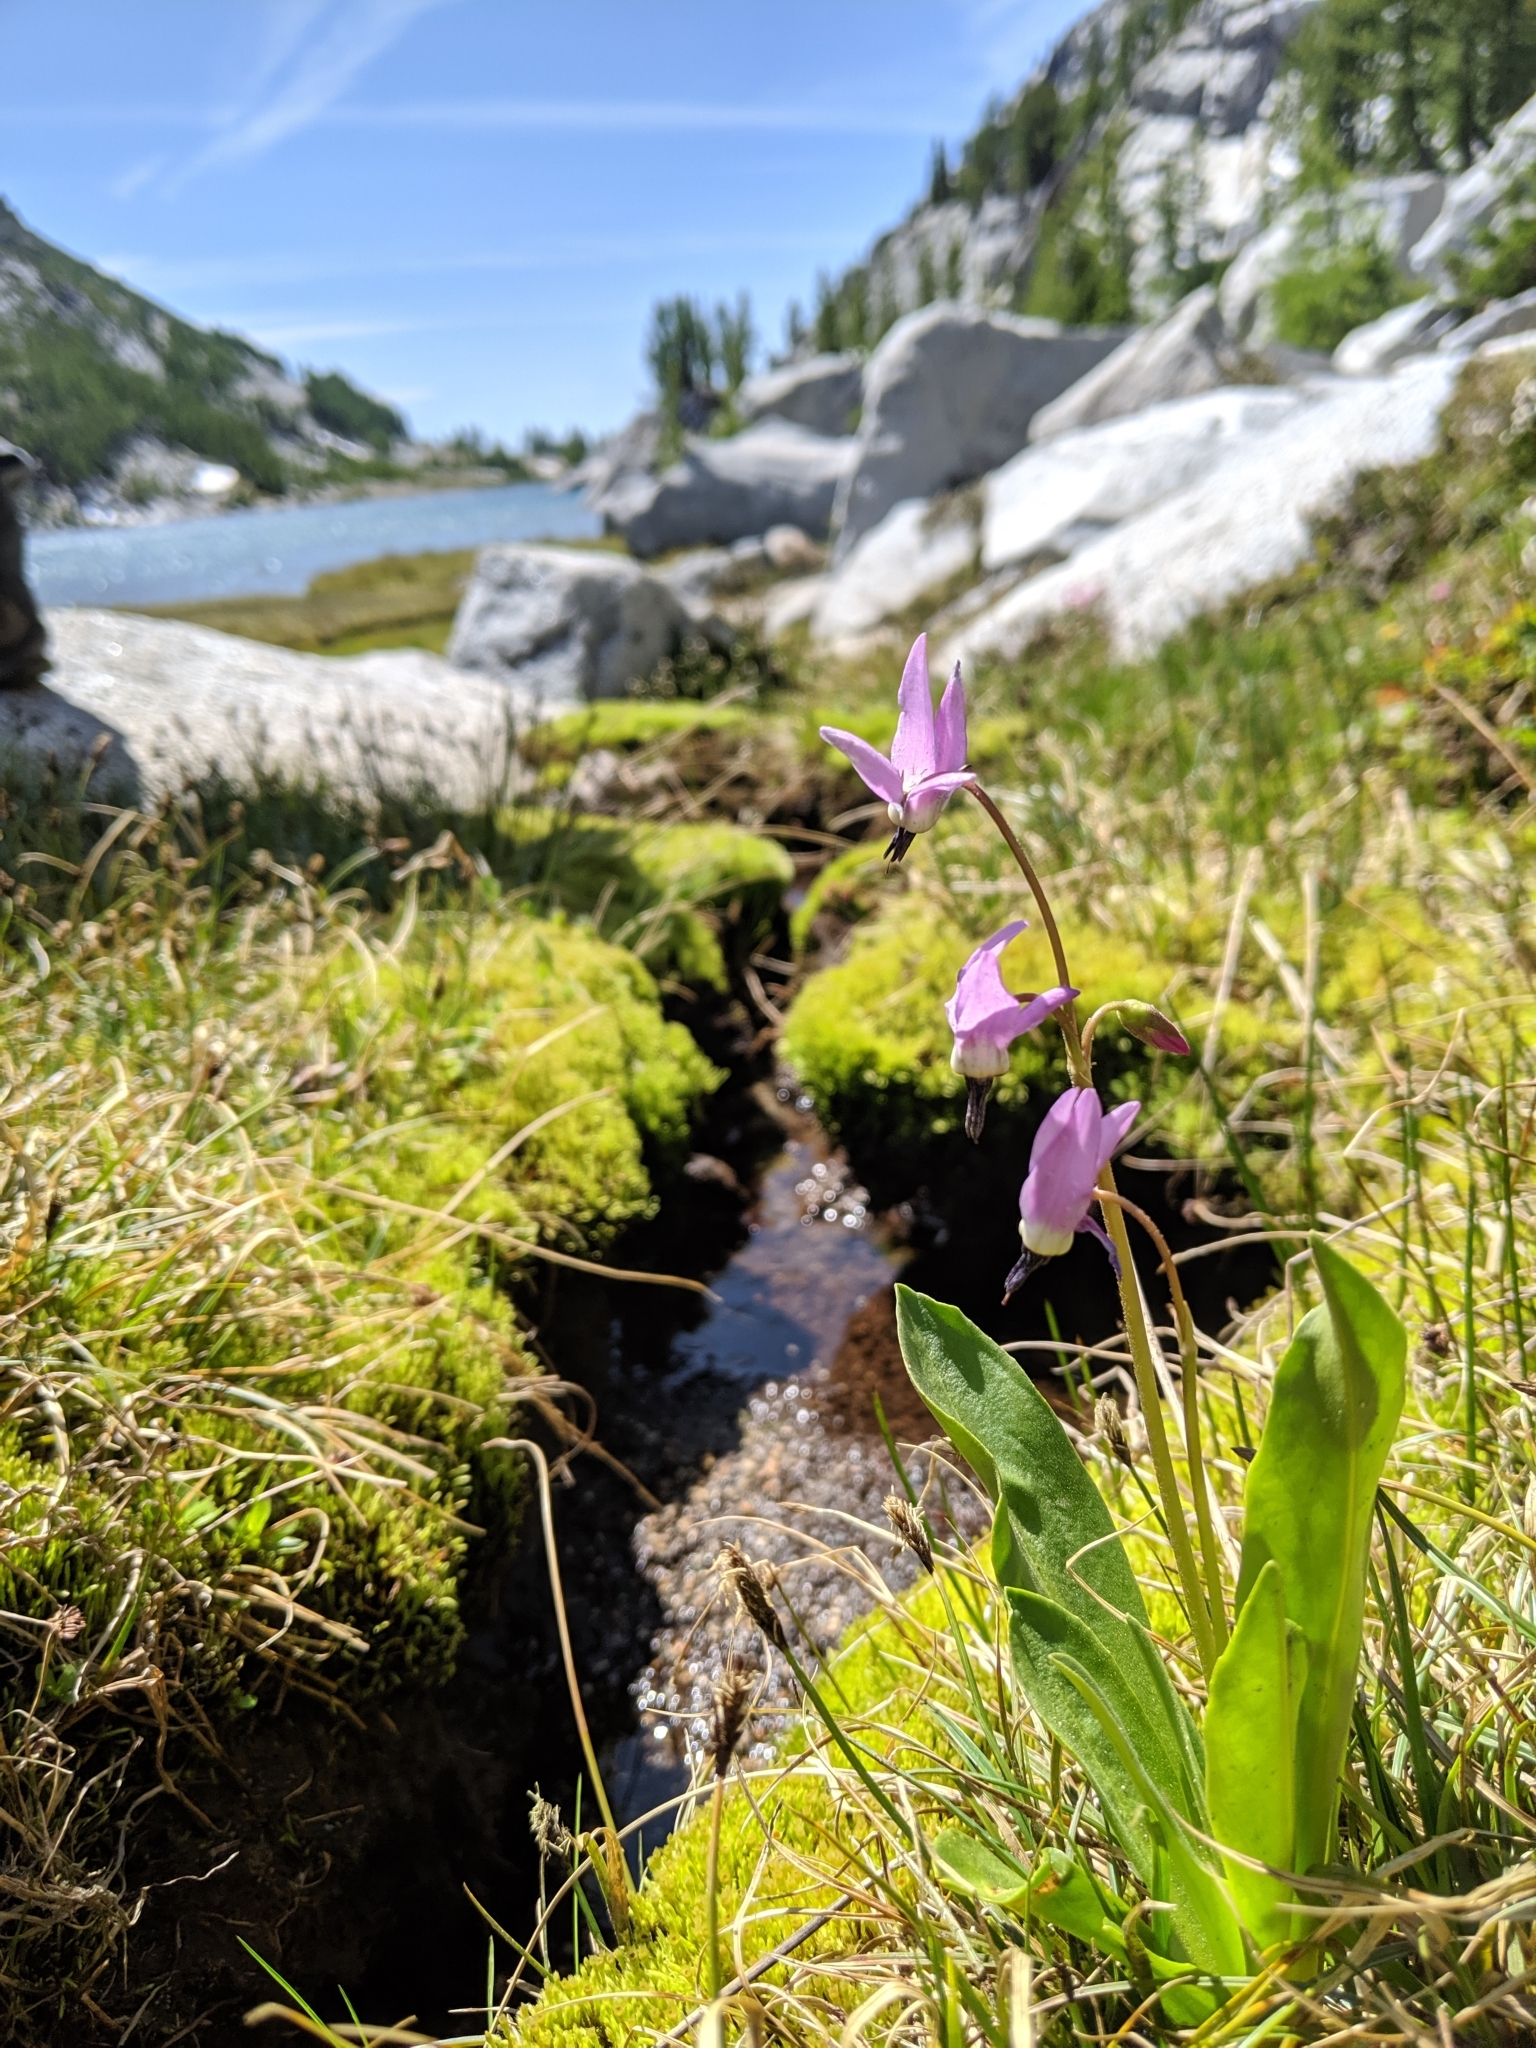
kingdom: Plantae
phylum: Tracheophyta
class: Magnoliopsida
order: Ericales
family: Primulaceae
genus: Dodecatheon
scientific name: Dodecatheon jeffreyanum
